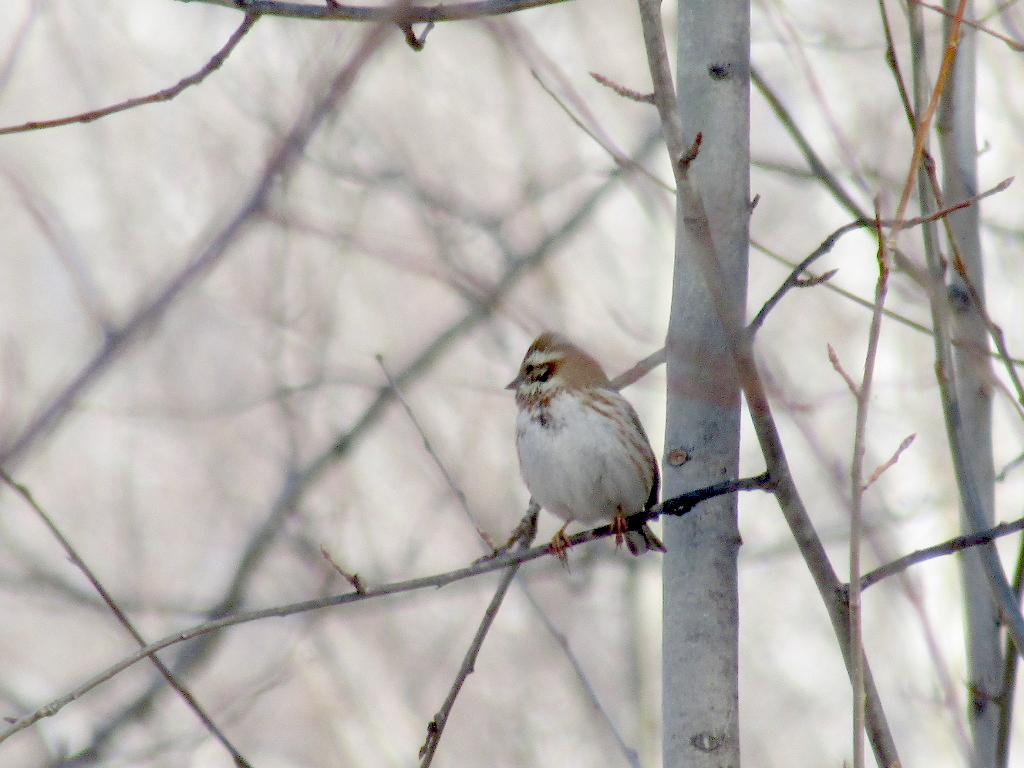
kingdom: Animalia
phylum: Chordata
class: Aves
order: Passeriformes
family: Emberizidae
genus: Emberiza
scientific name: Emberiza rustica
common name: Rustic bunting
